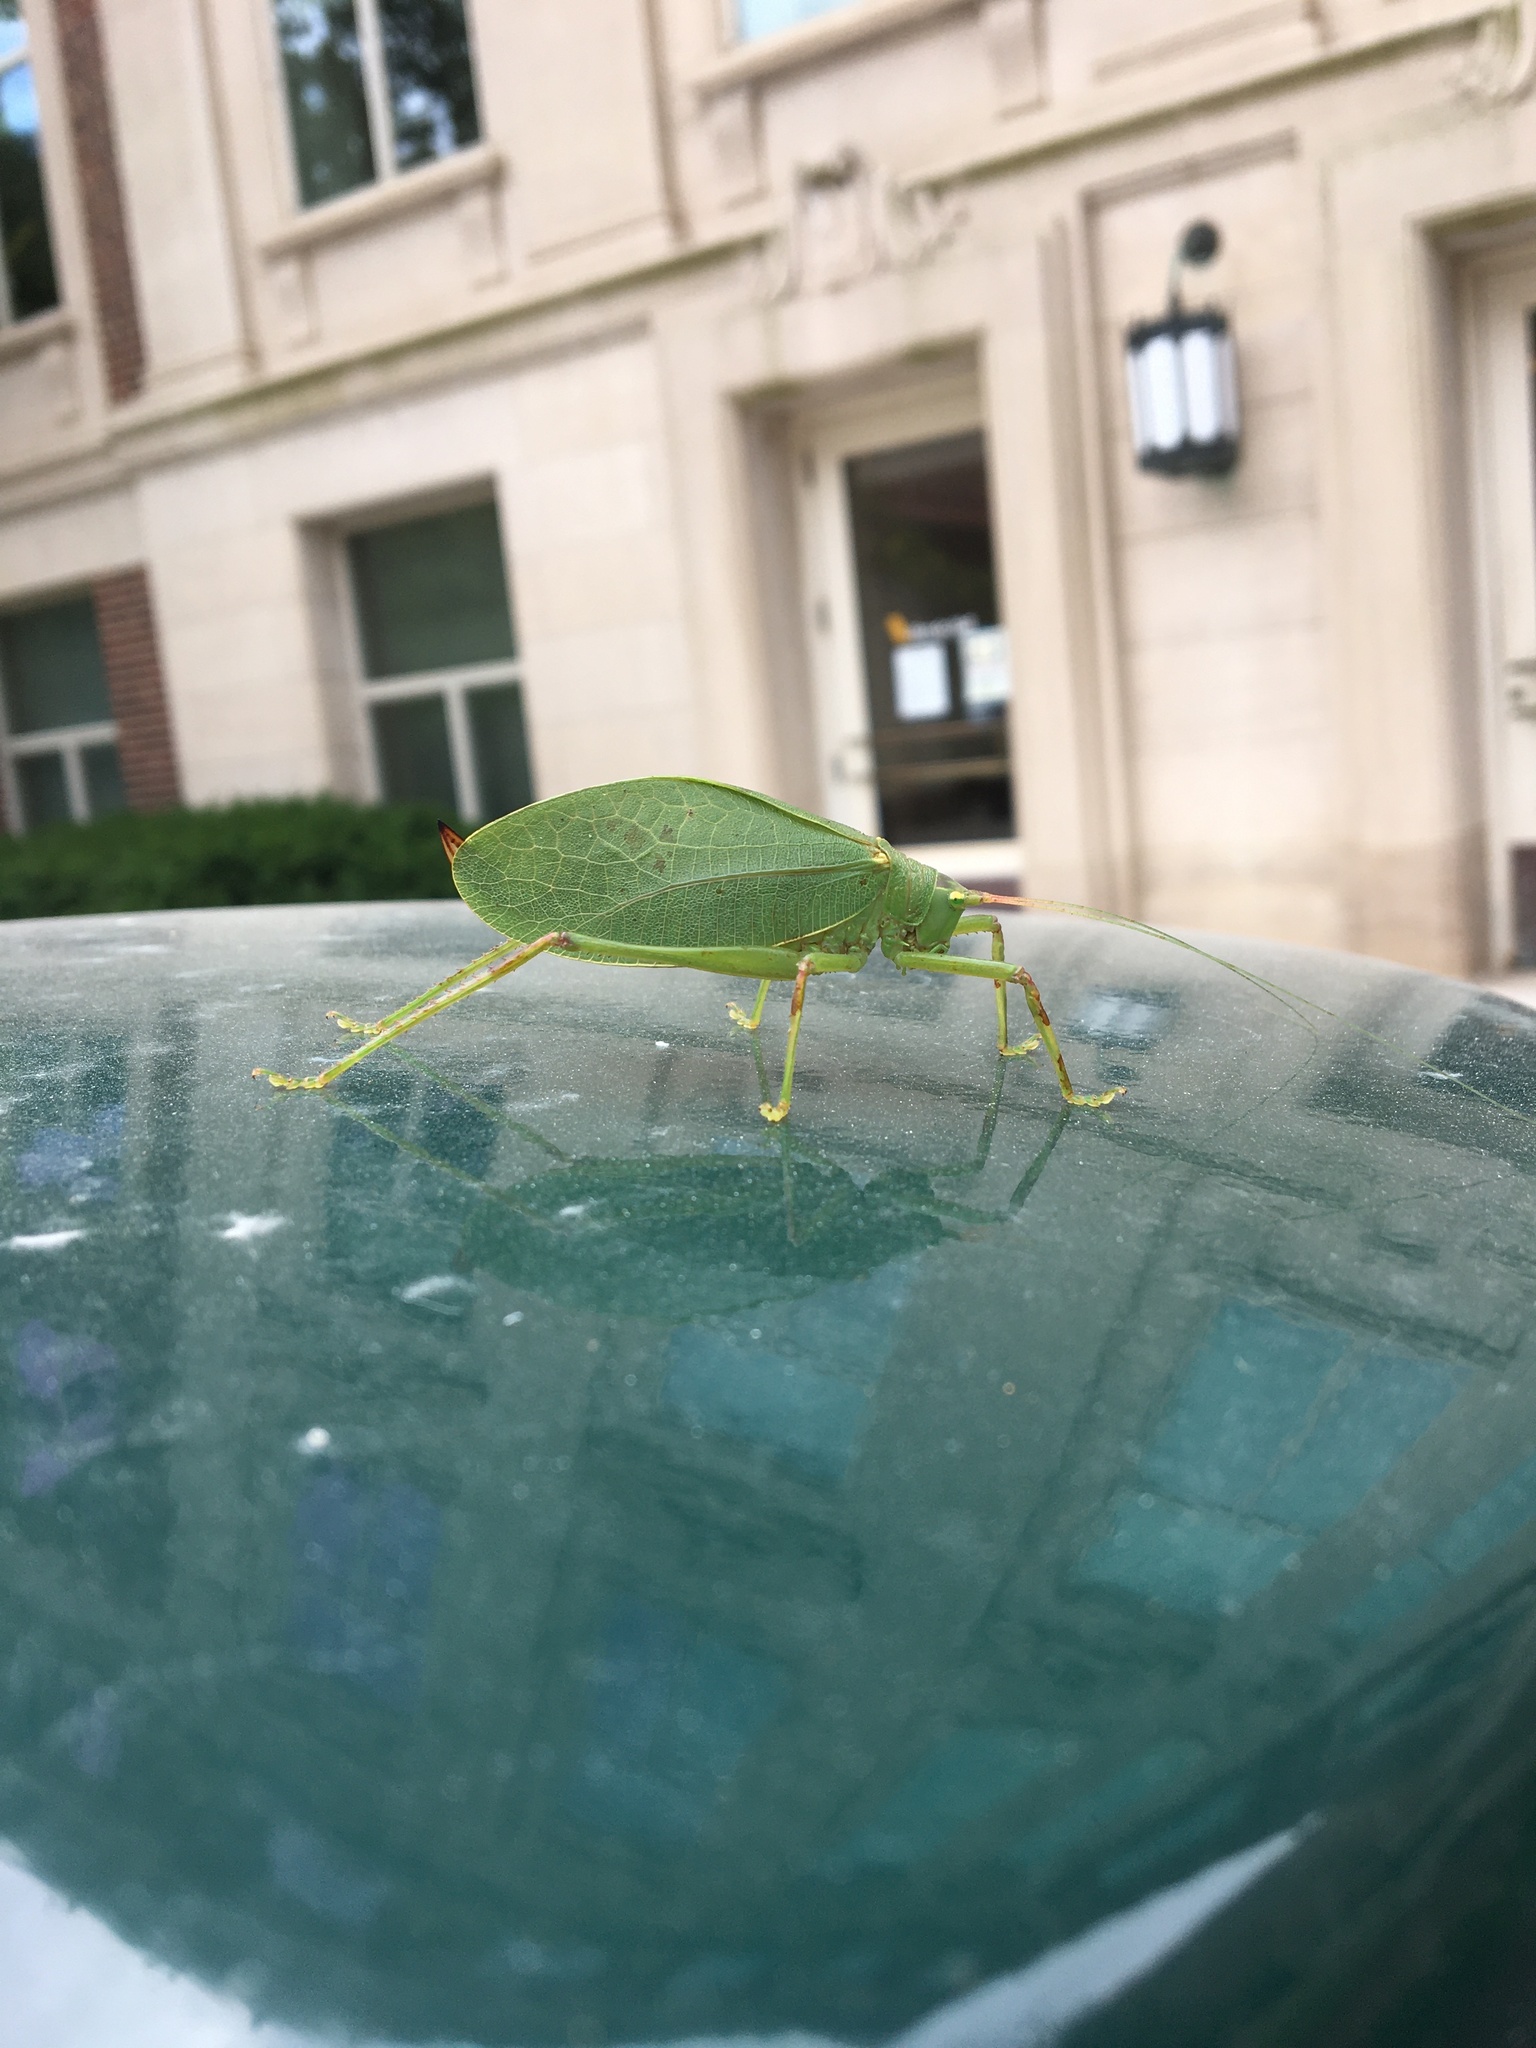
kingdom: Animalia
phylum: Arthropoda
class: Insecta
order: Orthoptera
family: Tettigoniidae
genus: Pterophylla
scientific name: Pterophylla camellifolia
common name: Common true katydid
